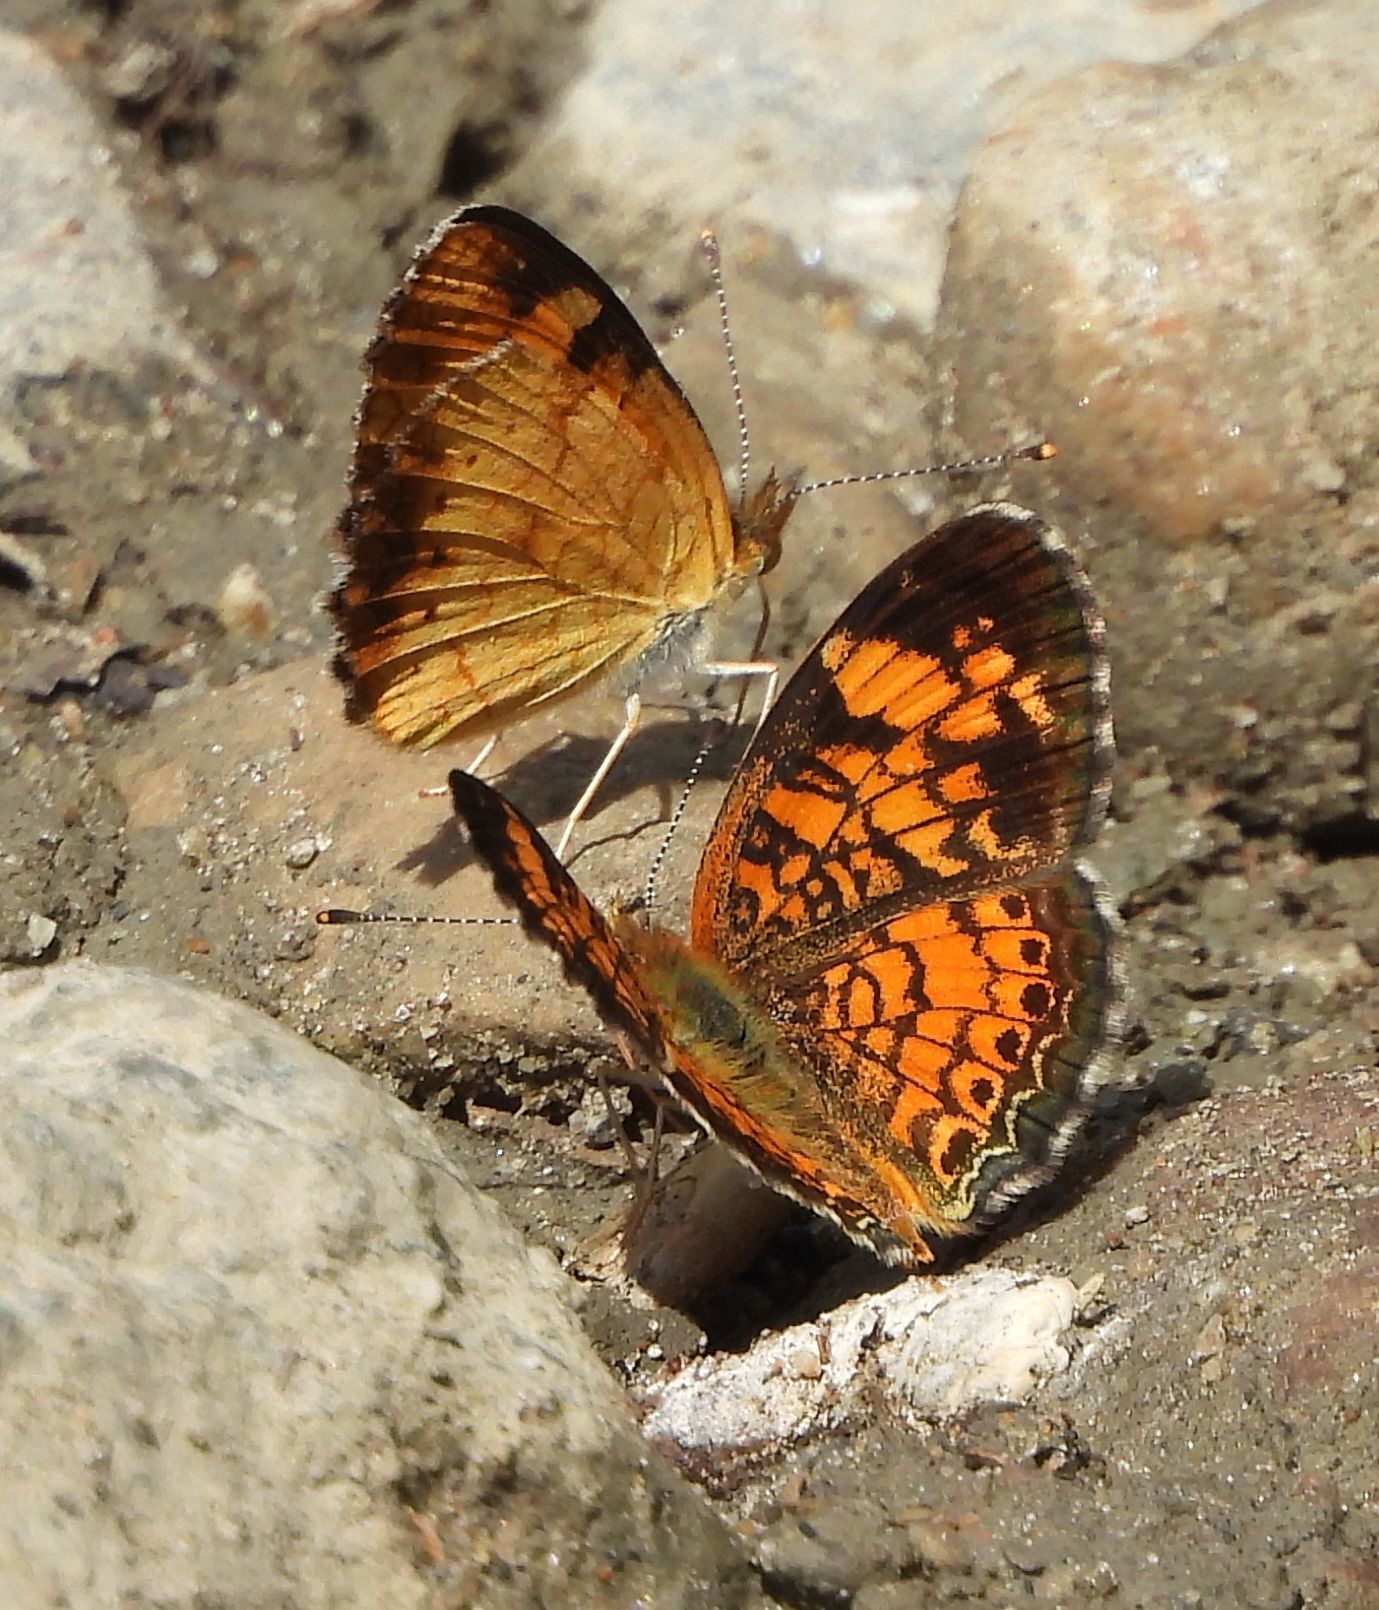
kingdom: Animalia
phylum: Arthropoda
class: Insecta
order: Lepidoptera
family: Nymphalidae
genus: Phyciodes
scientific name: Phyciodes tharos
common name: Pearl crescent
